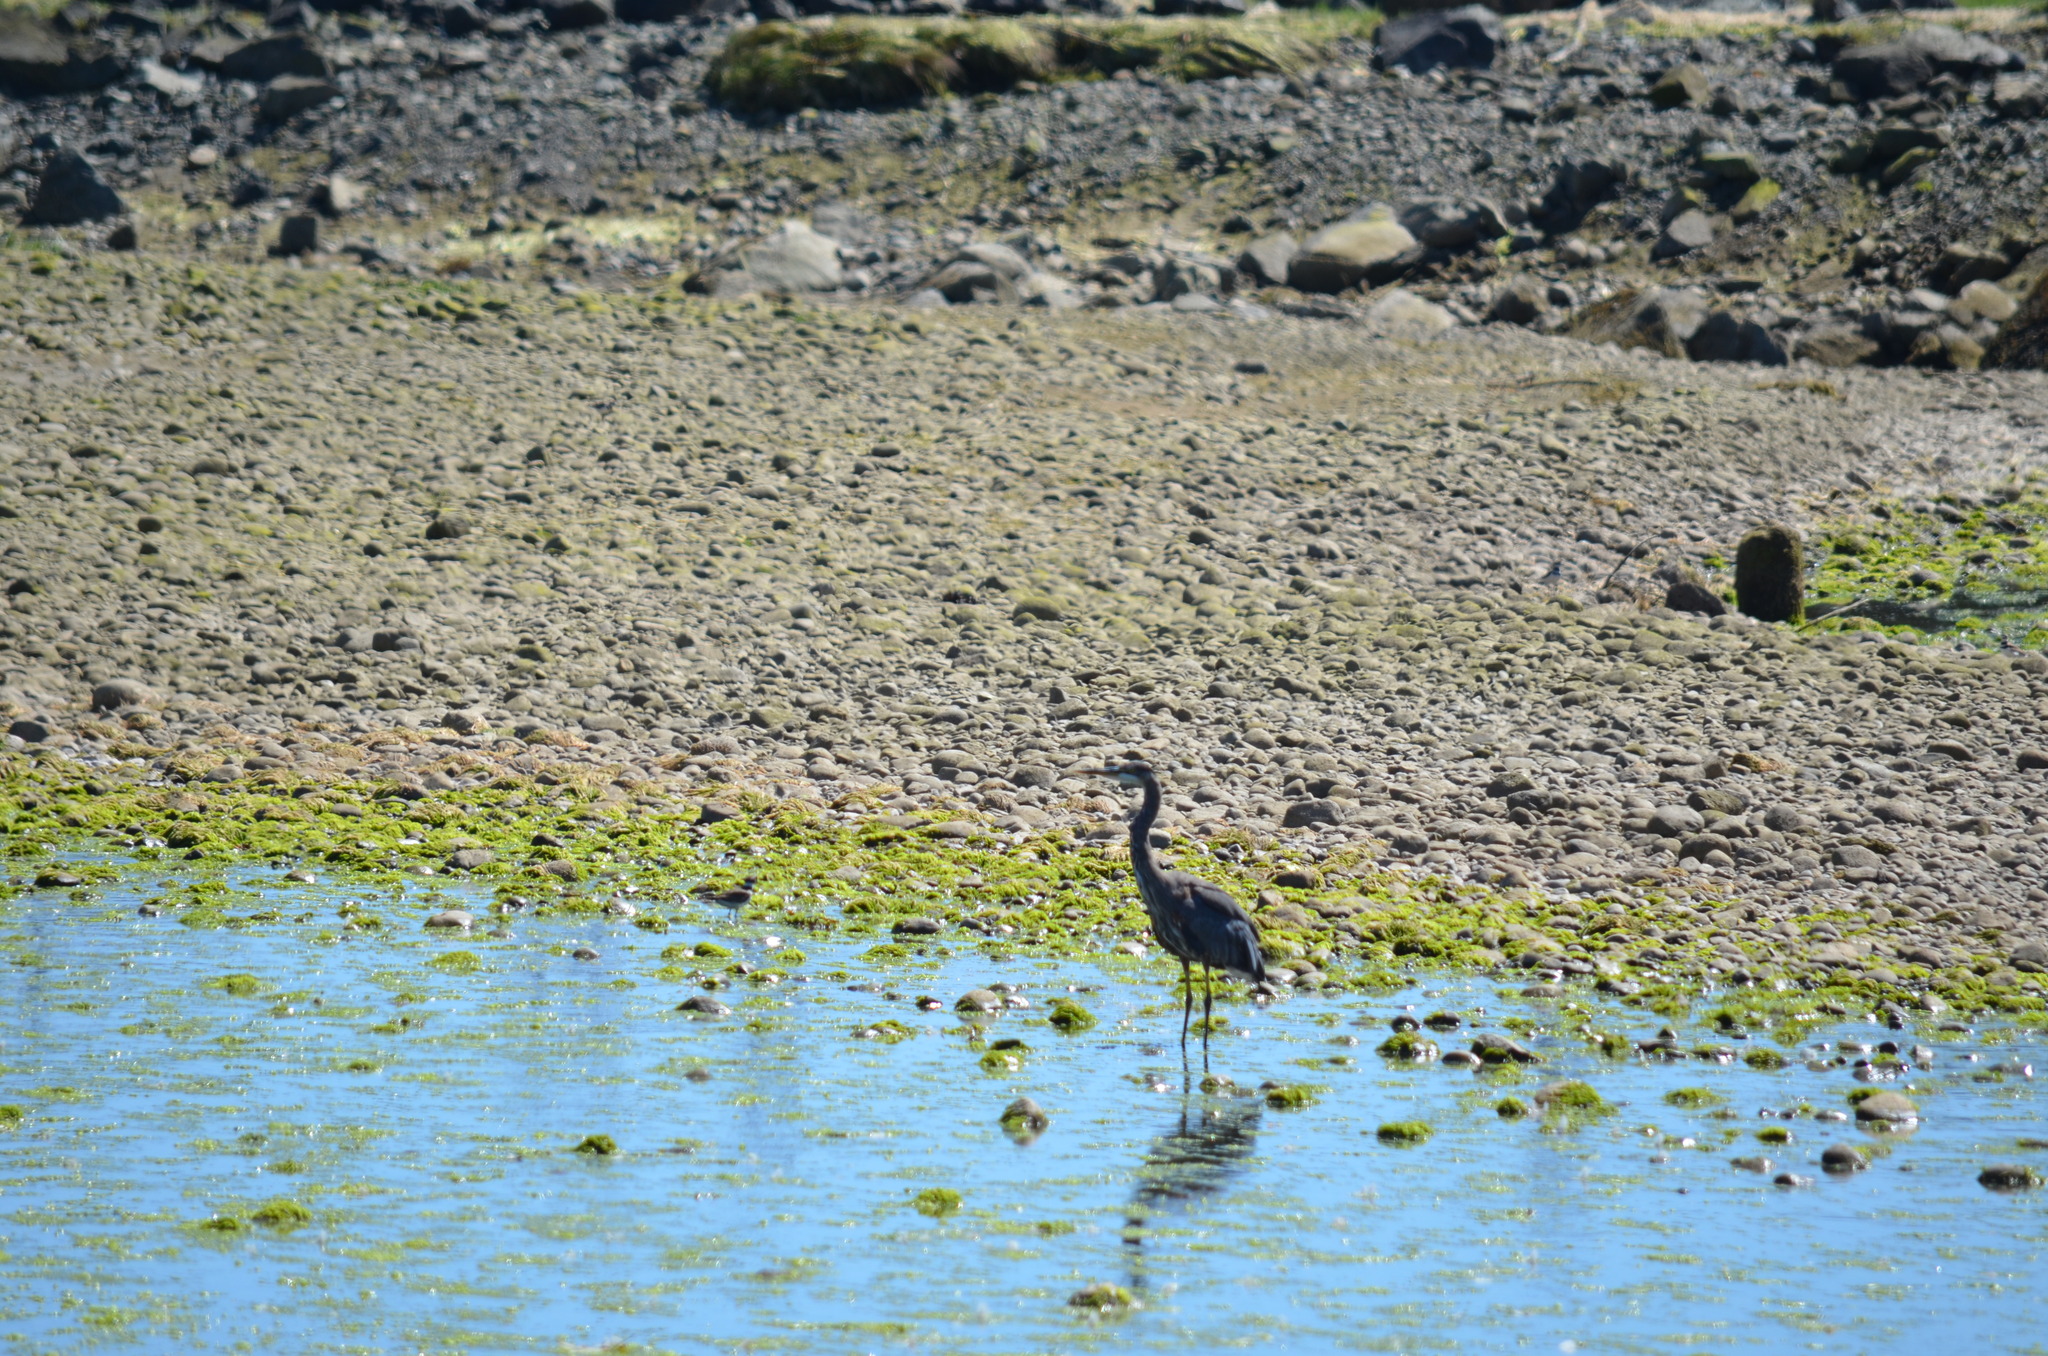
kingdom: Animalia
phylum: Chordata
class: Aves
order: Pelecaniformes
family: Ardeidae
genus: Ardea
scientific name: Ardea herodias
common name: Great blue heron
